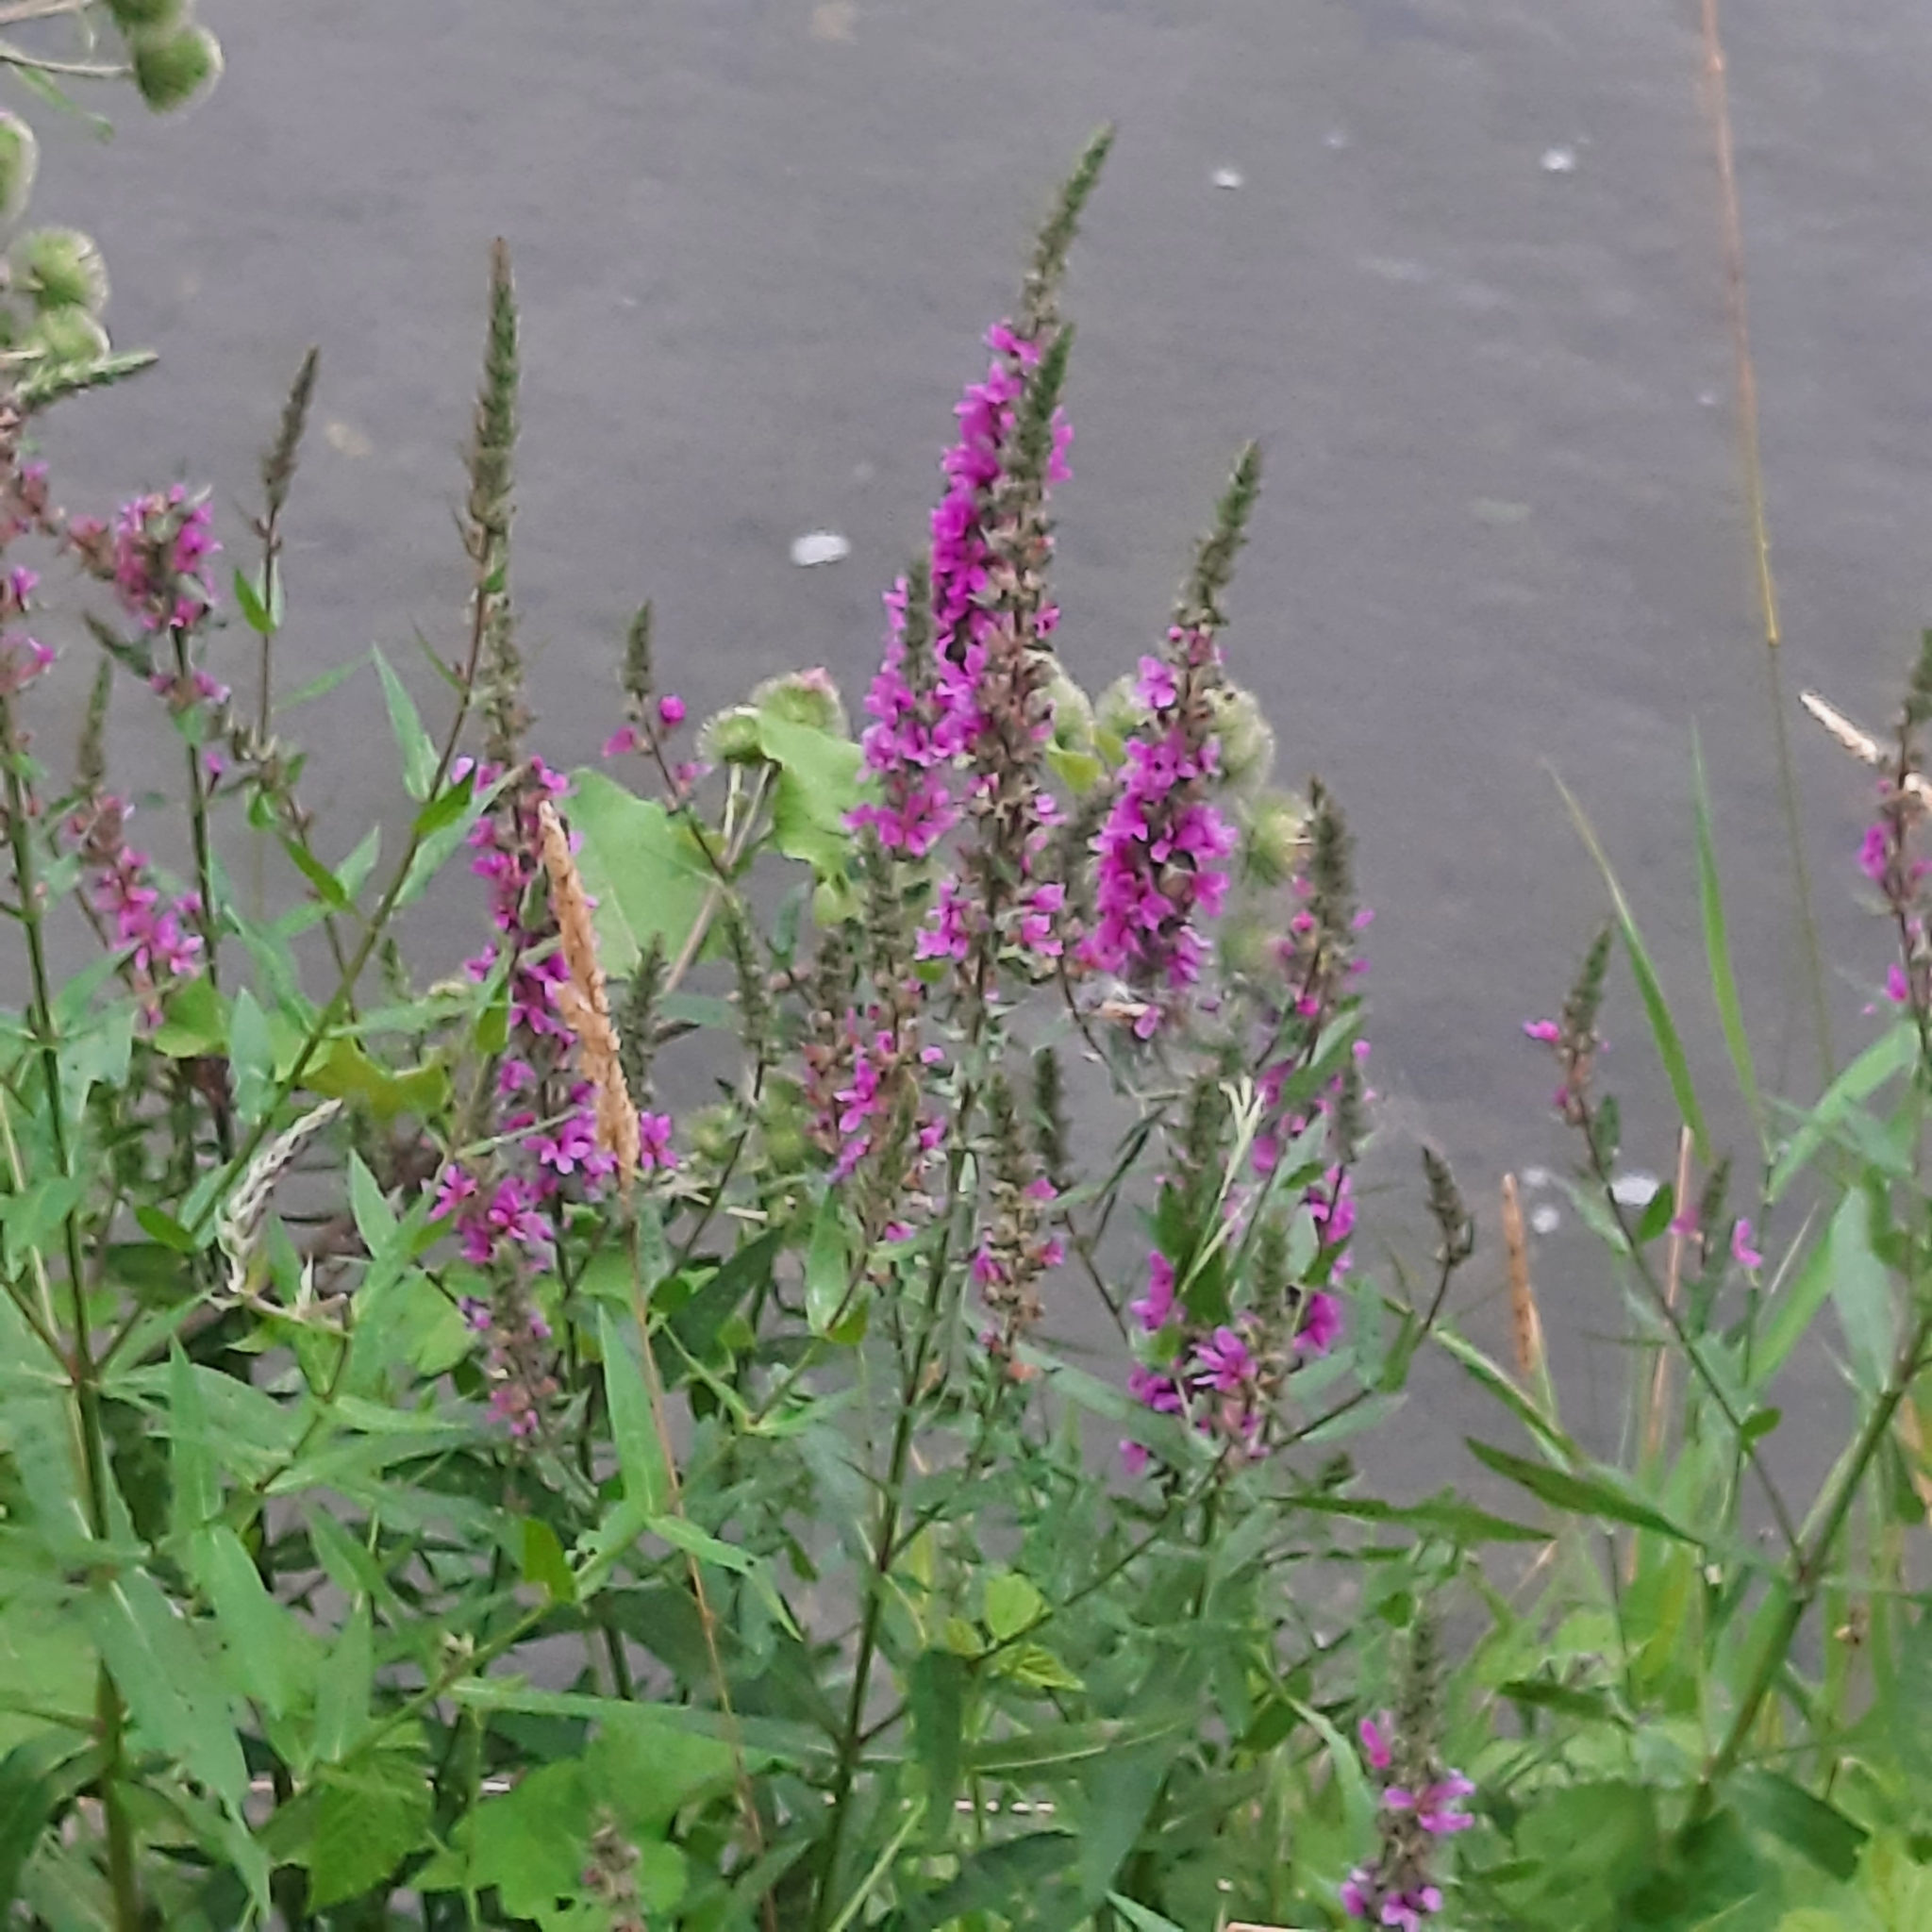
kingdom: Plantae
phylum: Tracheophyta
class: Magnoliopsida
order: Myrtales
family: Lythraceae
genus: Lythrum
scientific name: Lythrum salicaria
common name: Purple loosestrife
